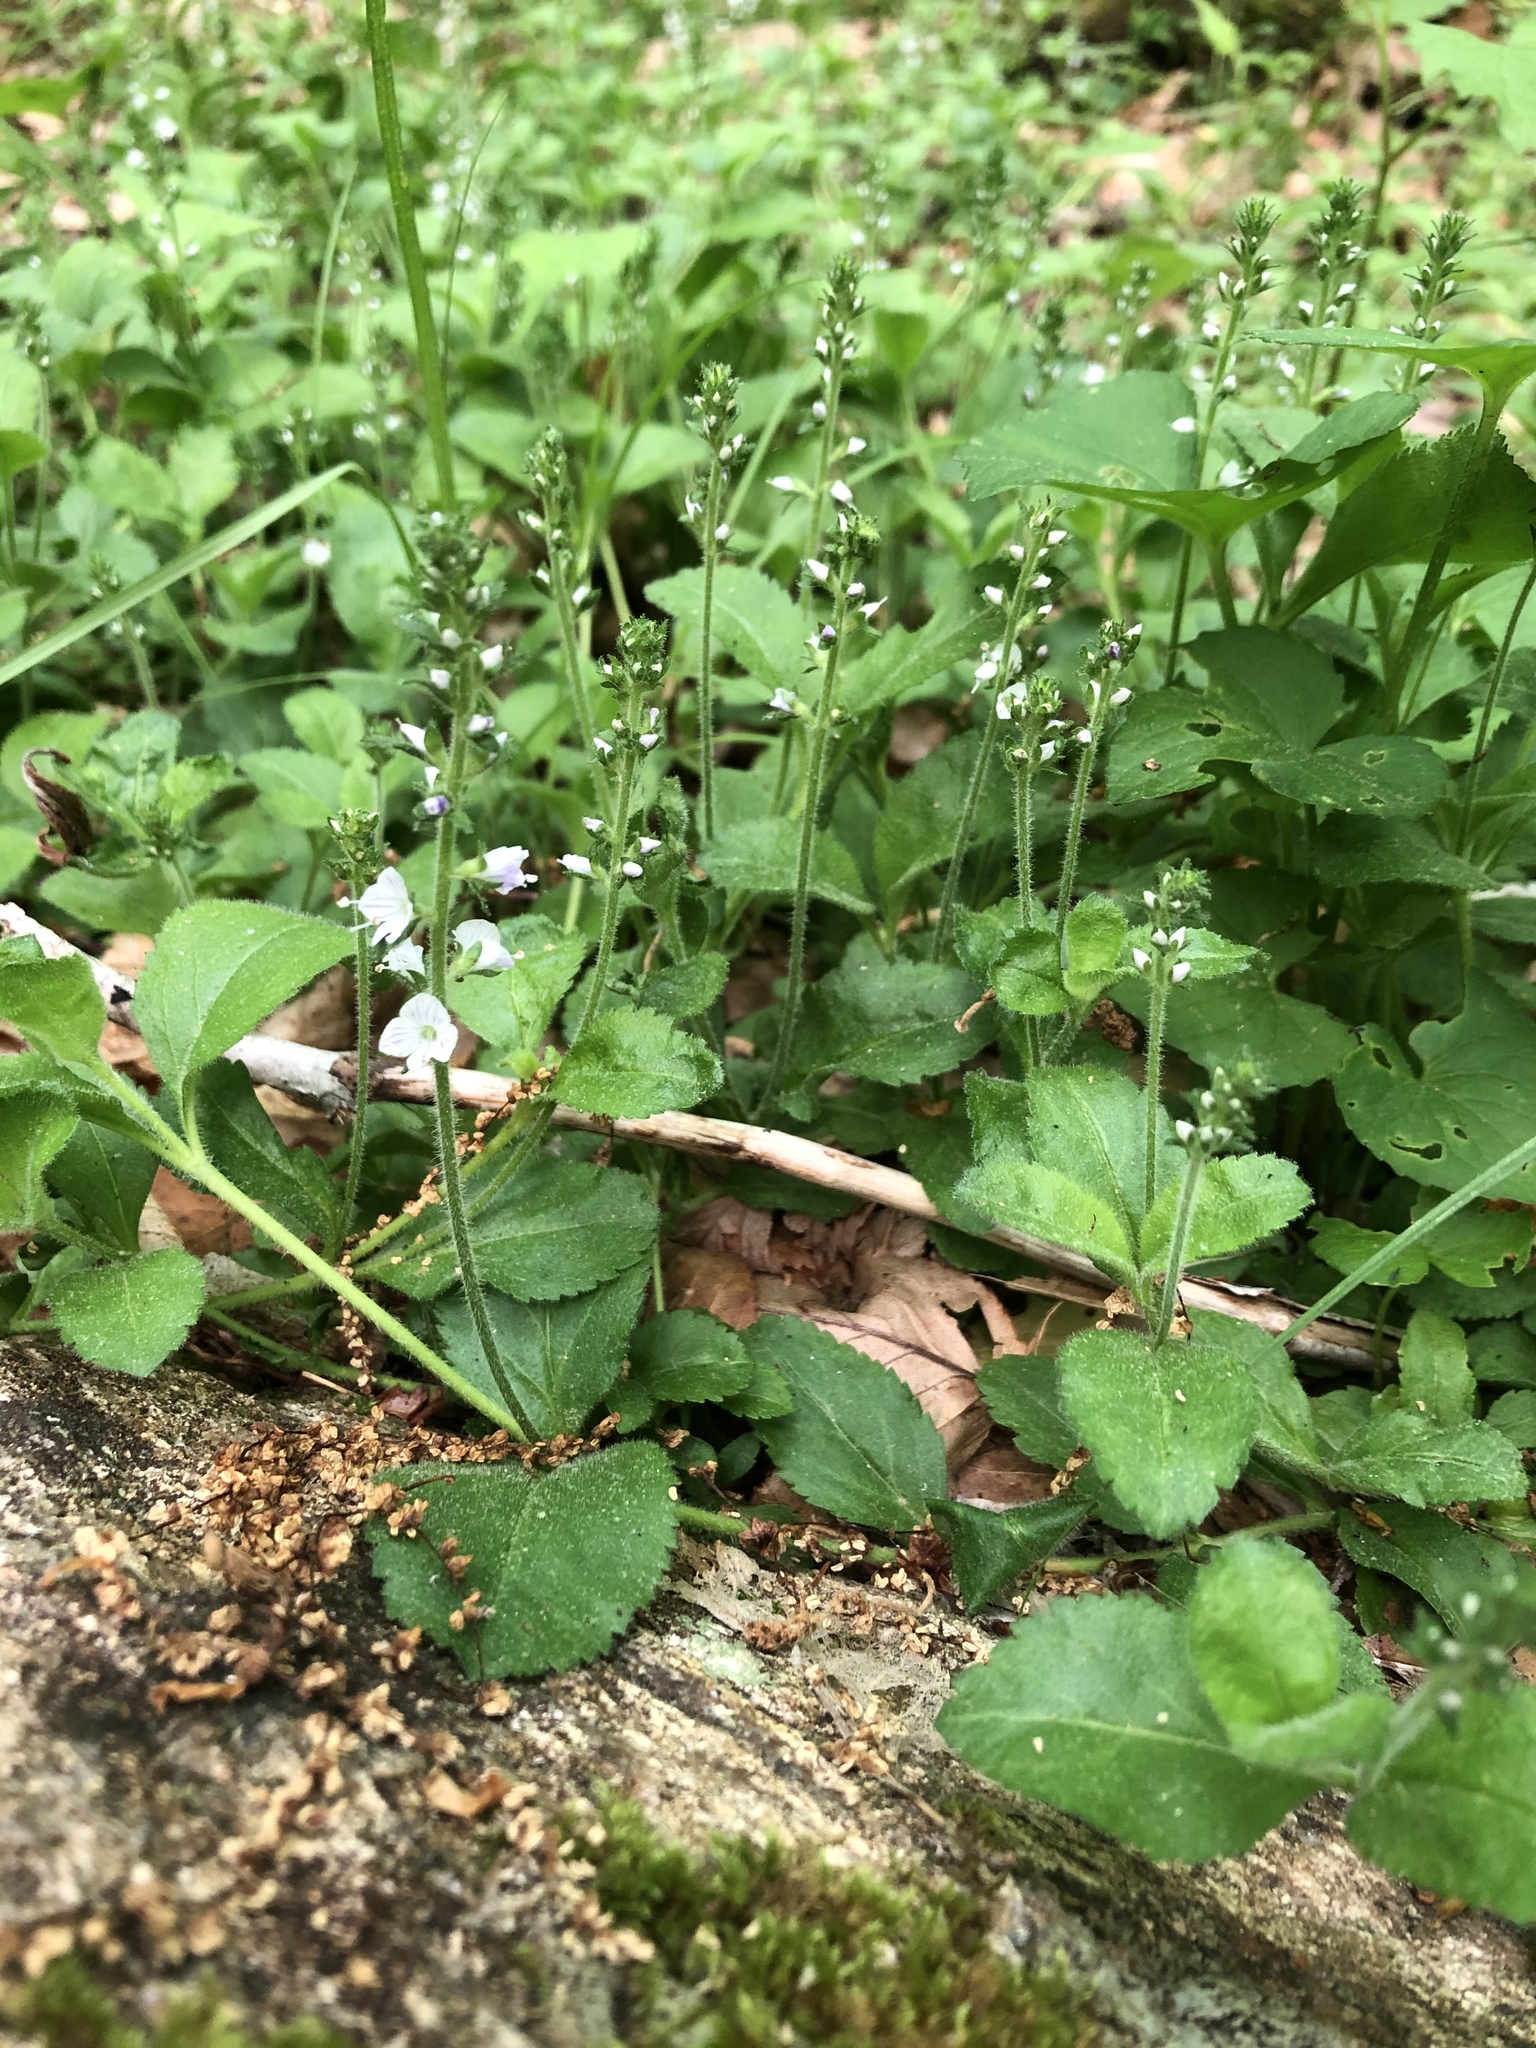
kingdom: Plantae
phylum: Tracheophyta
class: Magnoliopsida
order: Lamiales
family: Plantaginaceae
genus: Veronica
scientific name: Veronica officinalis
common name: Common speedwell
